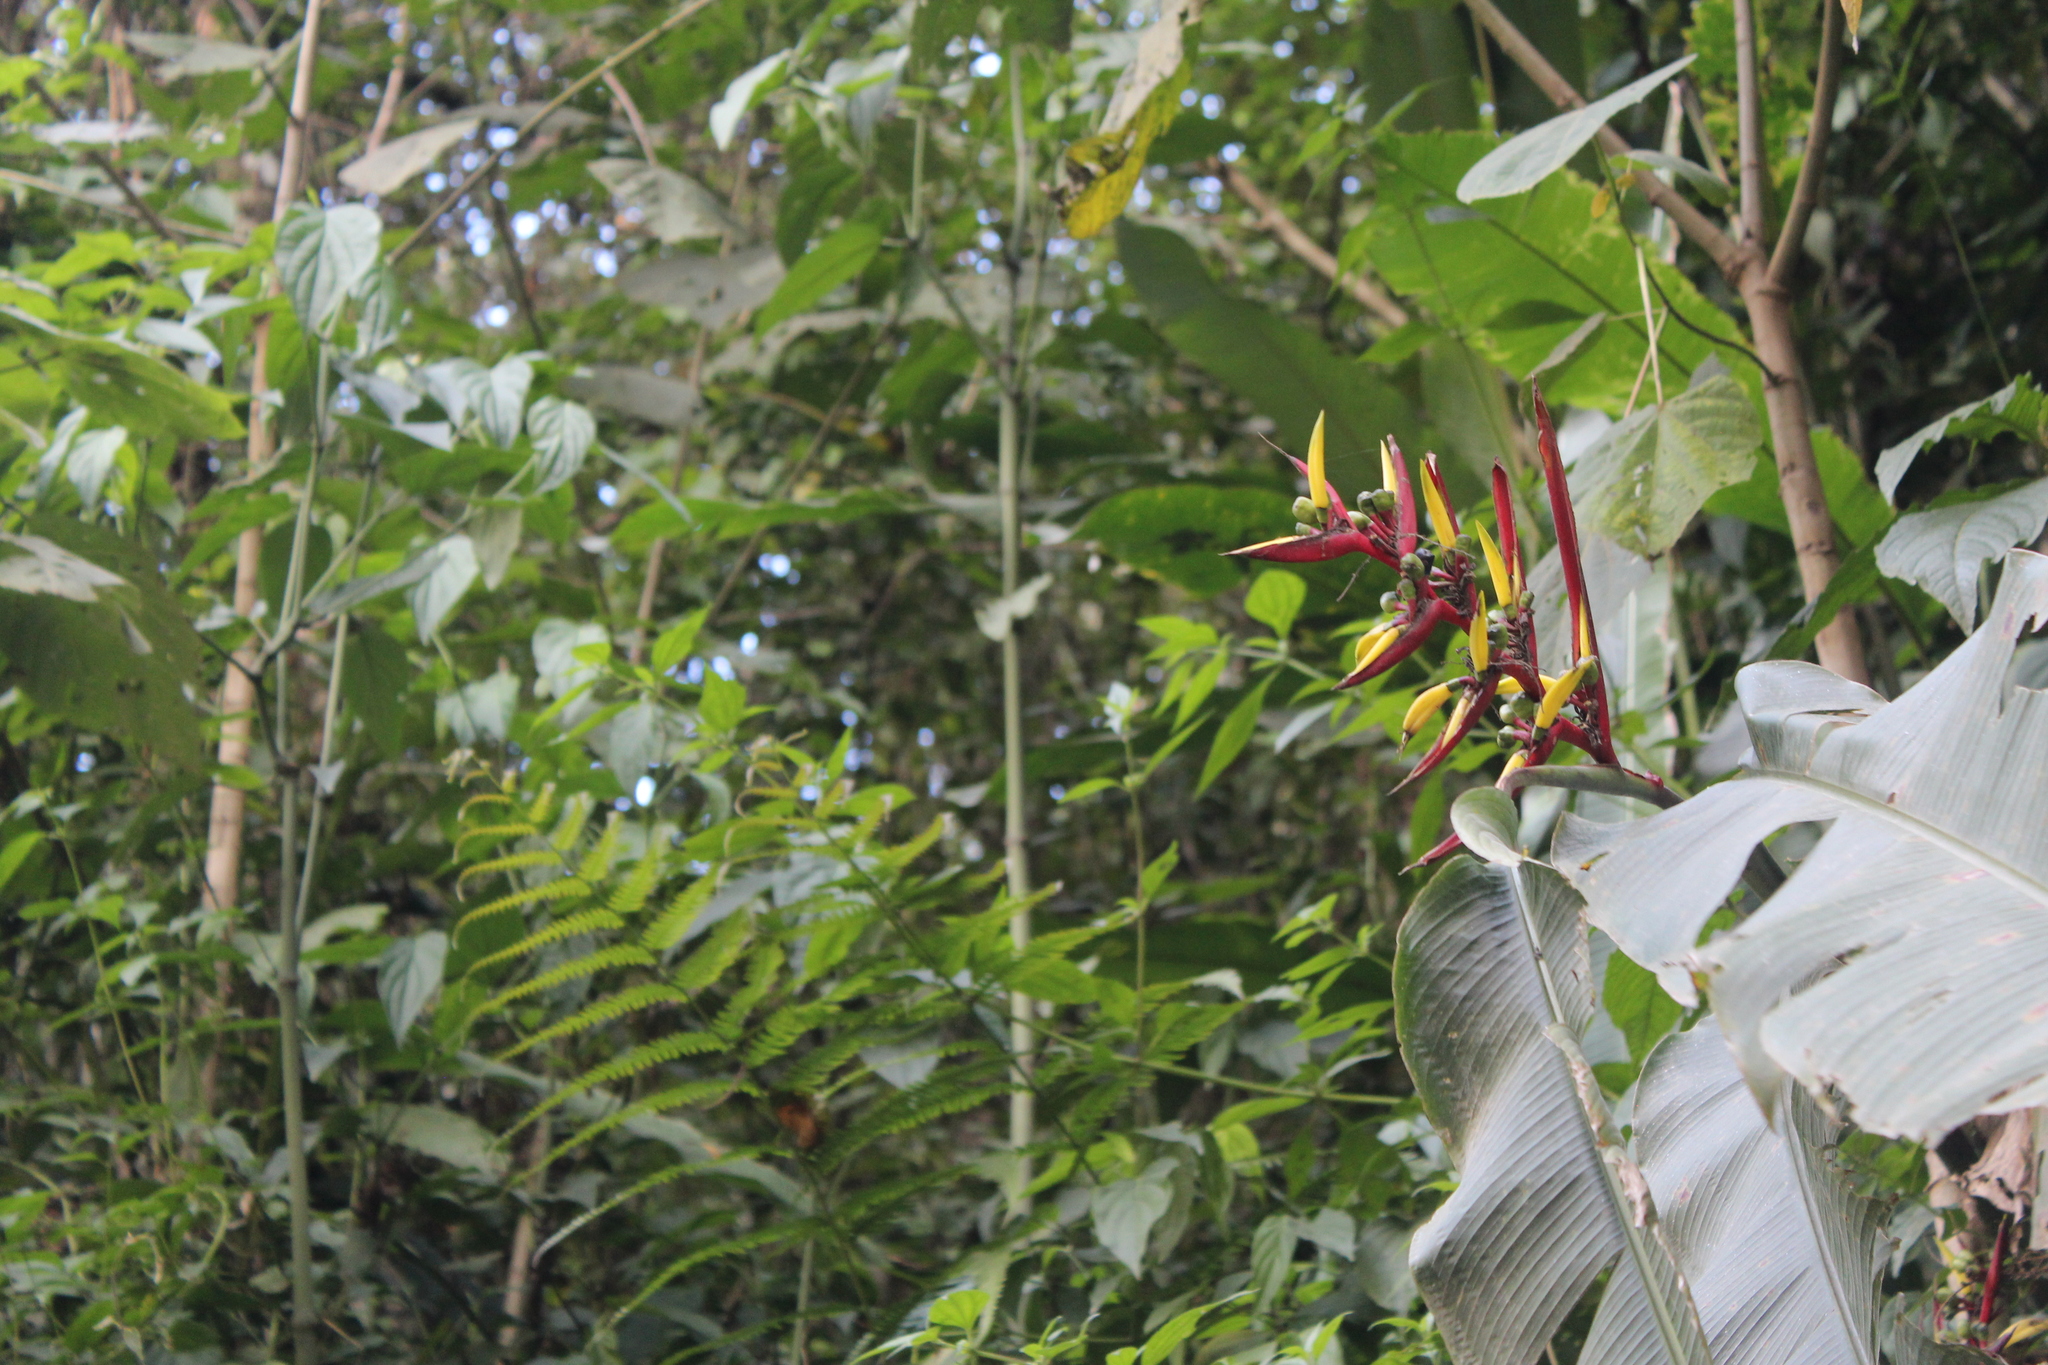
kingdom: Plantae
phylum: Tracheophyta
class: Liliopsida
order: Zingiberales
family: Heliconiaceae
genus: Heliconia
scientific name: Heliconia subulata
